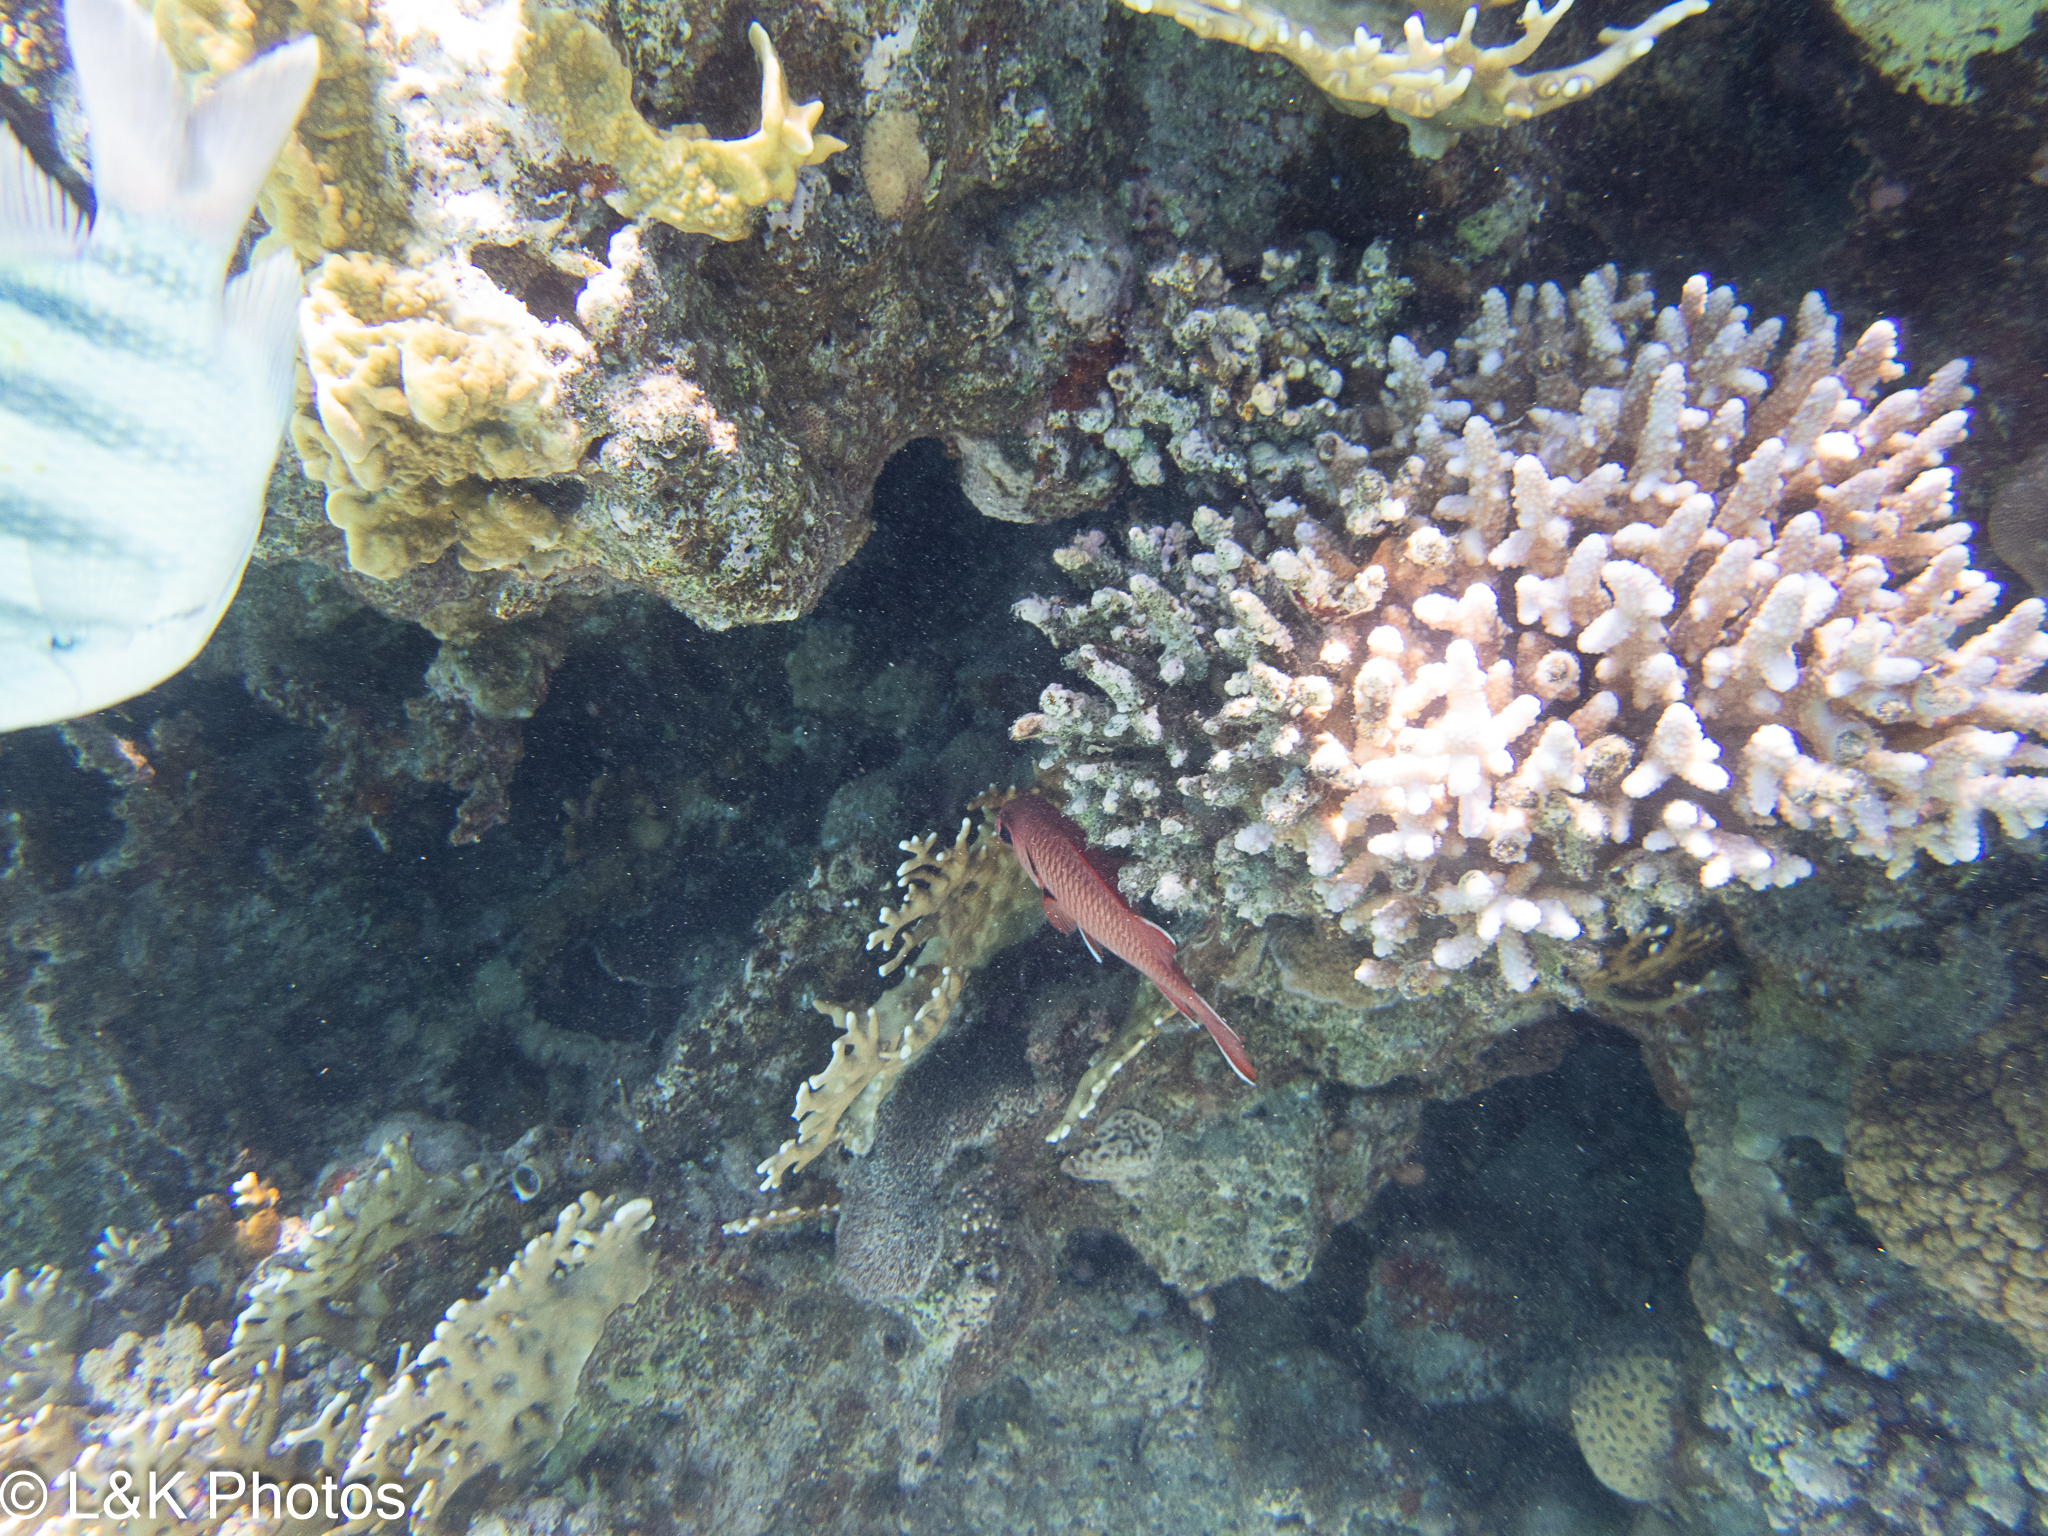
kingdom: Animalia
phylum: Chordata
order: Beryciformes
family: Holocentridae
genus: Myripristis
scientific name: Myripristis murdjan
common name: Big-eye soldierfish
